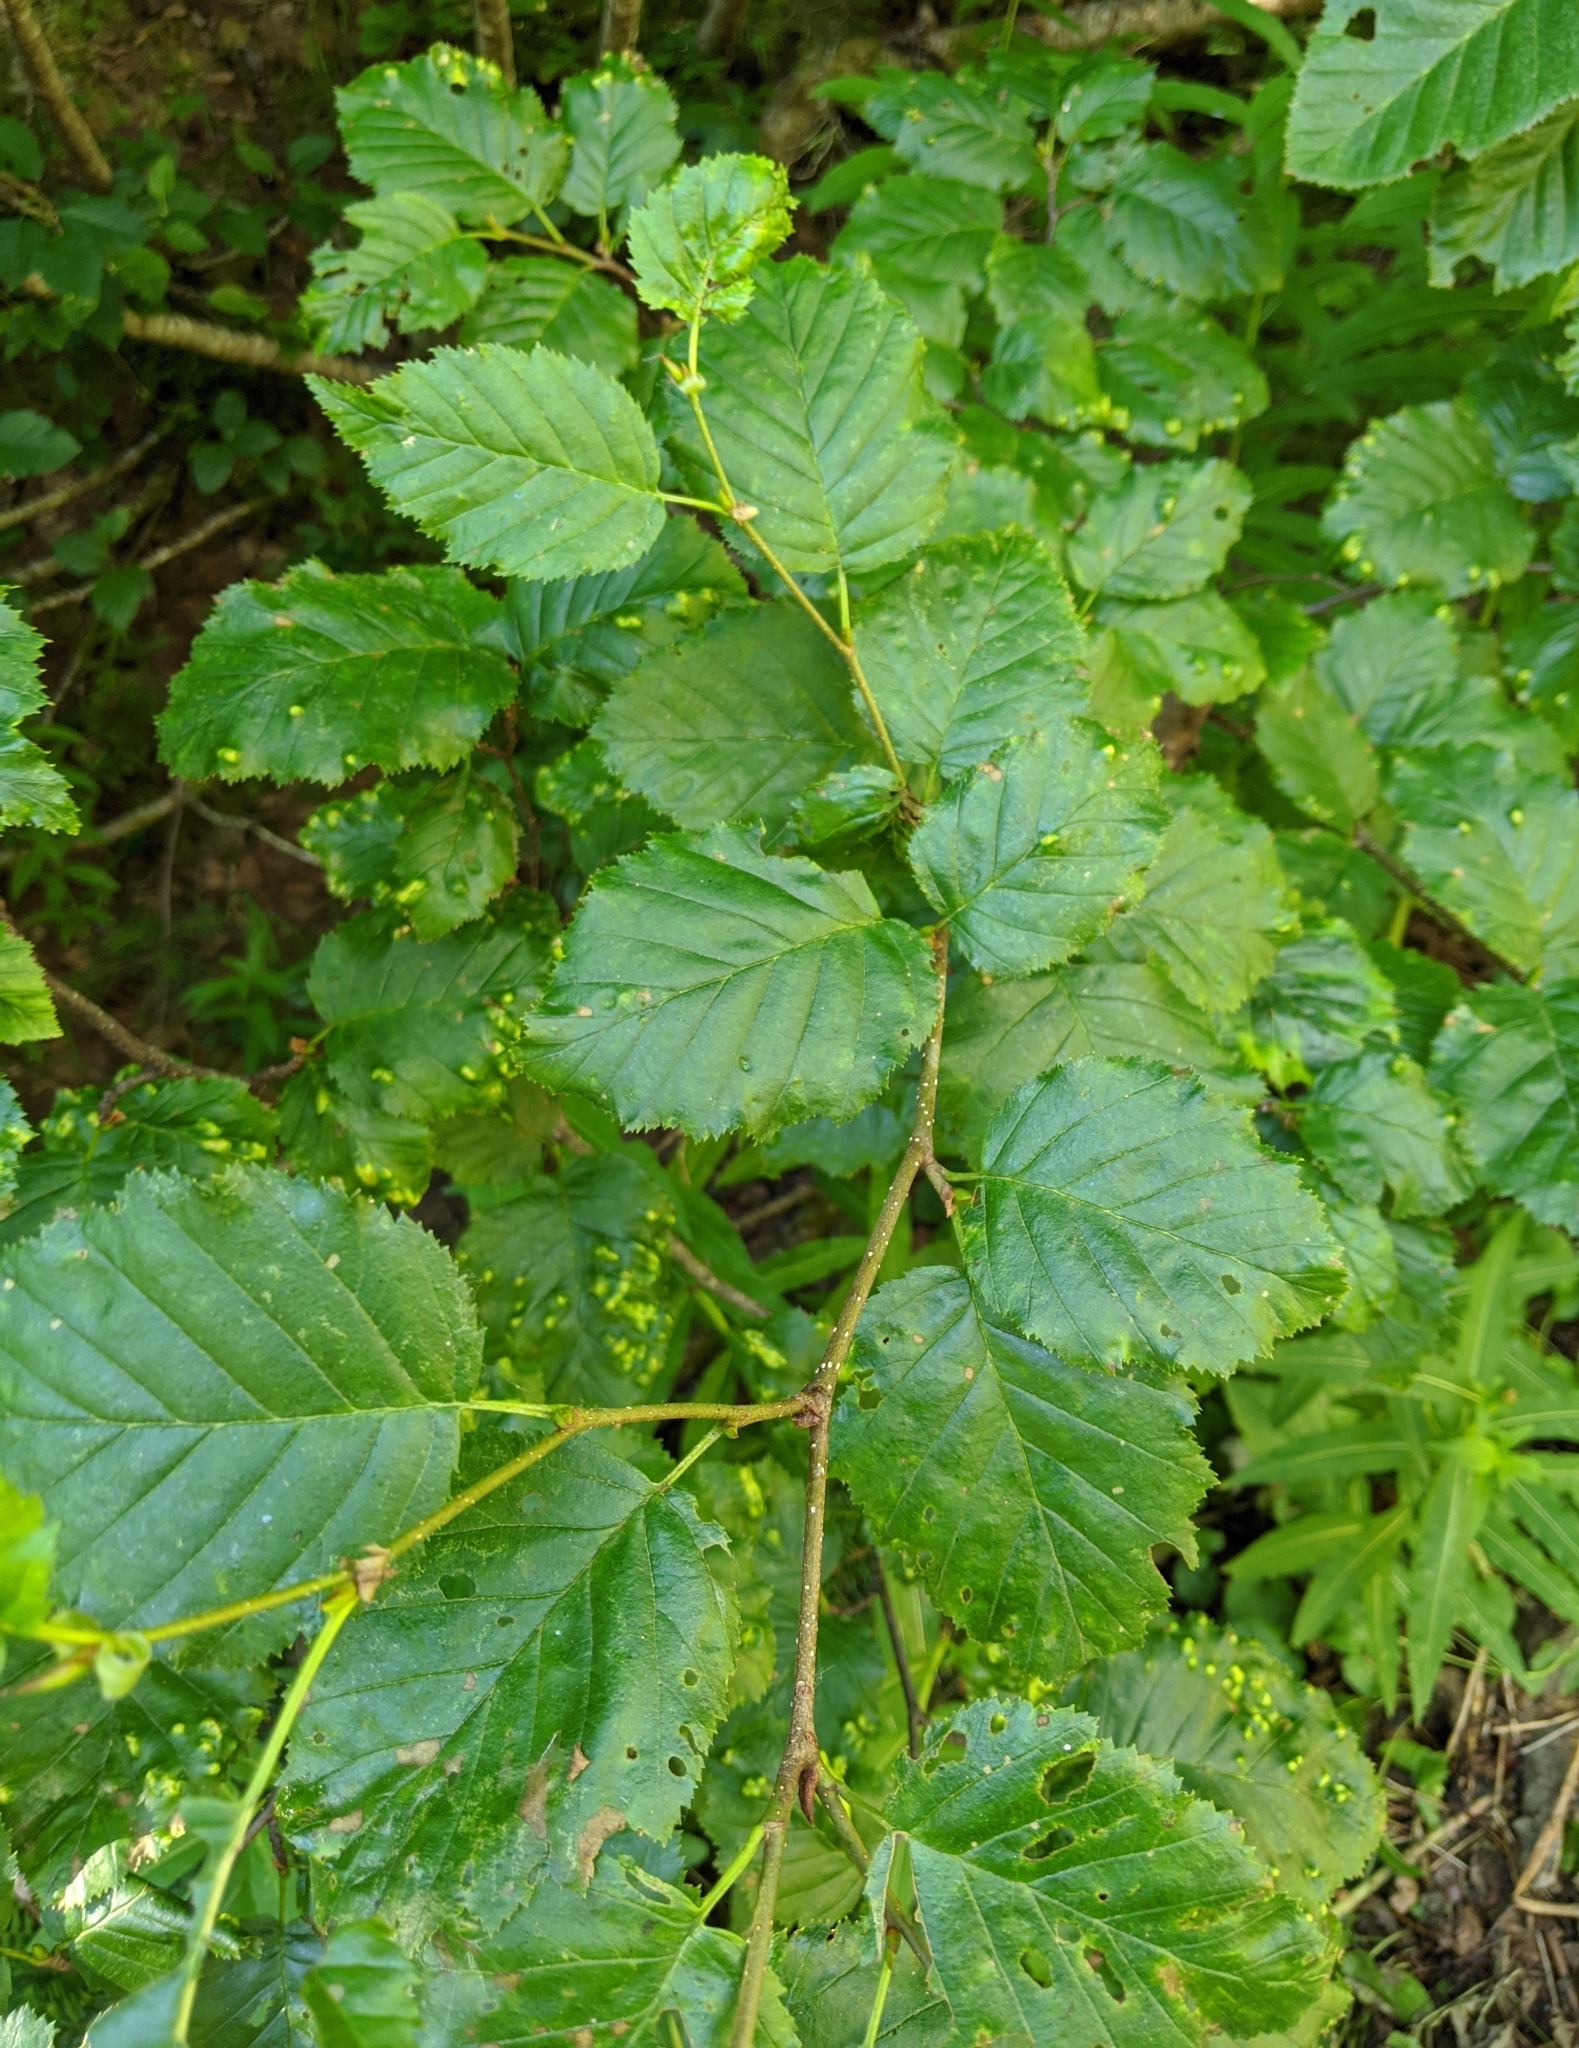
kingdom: Animalia
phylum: Arthropoda
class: Arachnida
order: Trombidiformes
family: Eriophyidae
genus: Acalitus
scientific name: Acalitus brevitarsus
